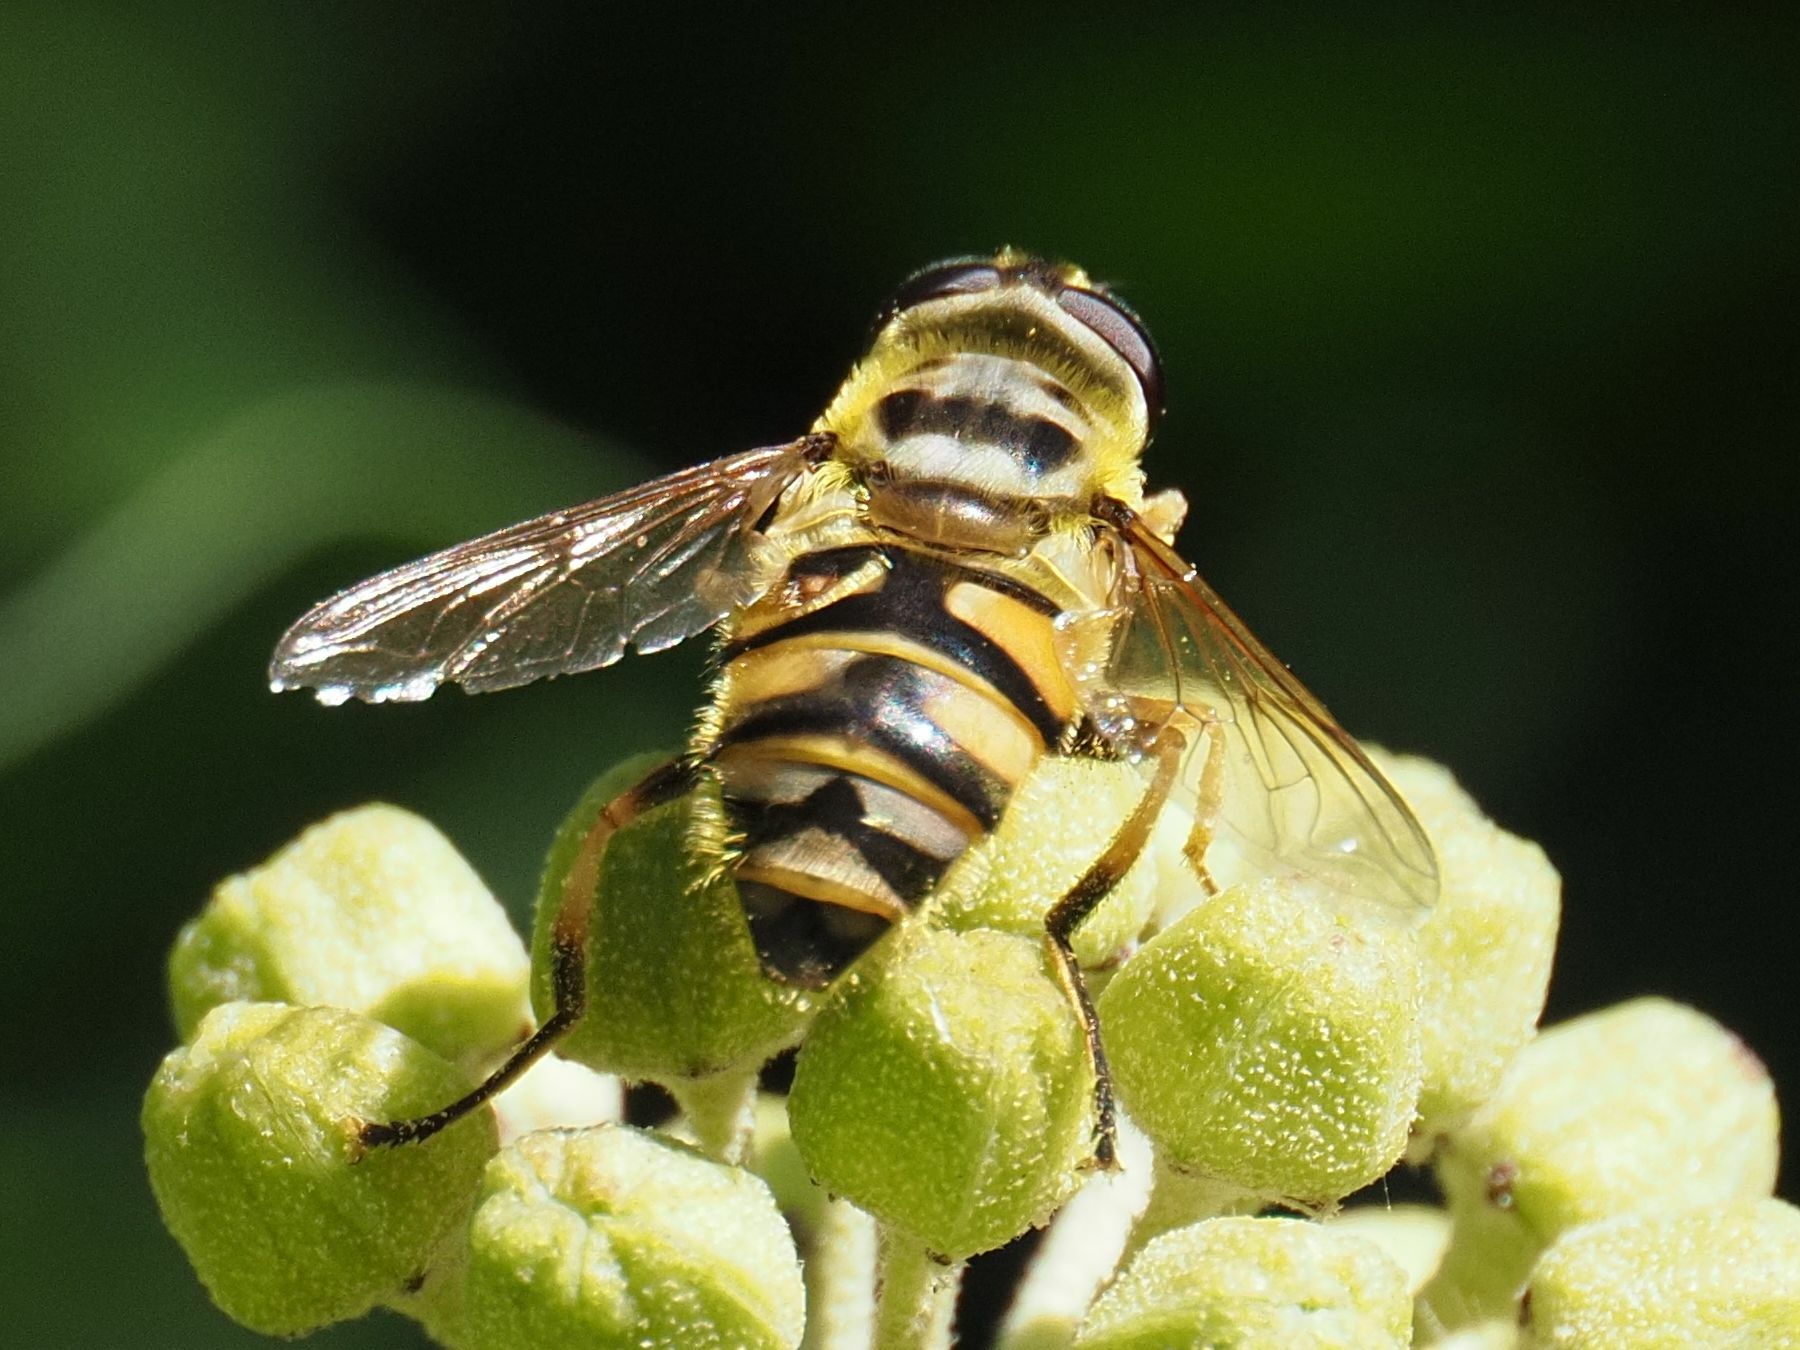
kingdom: Animalia
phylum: Arthropoda
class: Insecta
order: Diptera
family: Syrphidae
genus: Myathropa
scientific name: Myathropa florea
